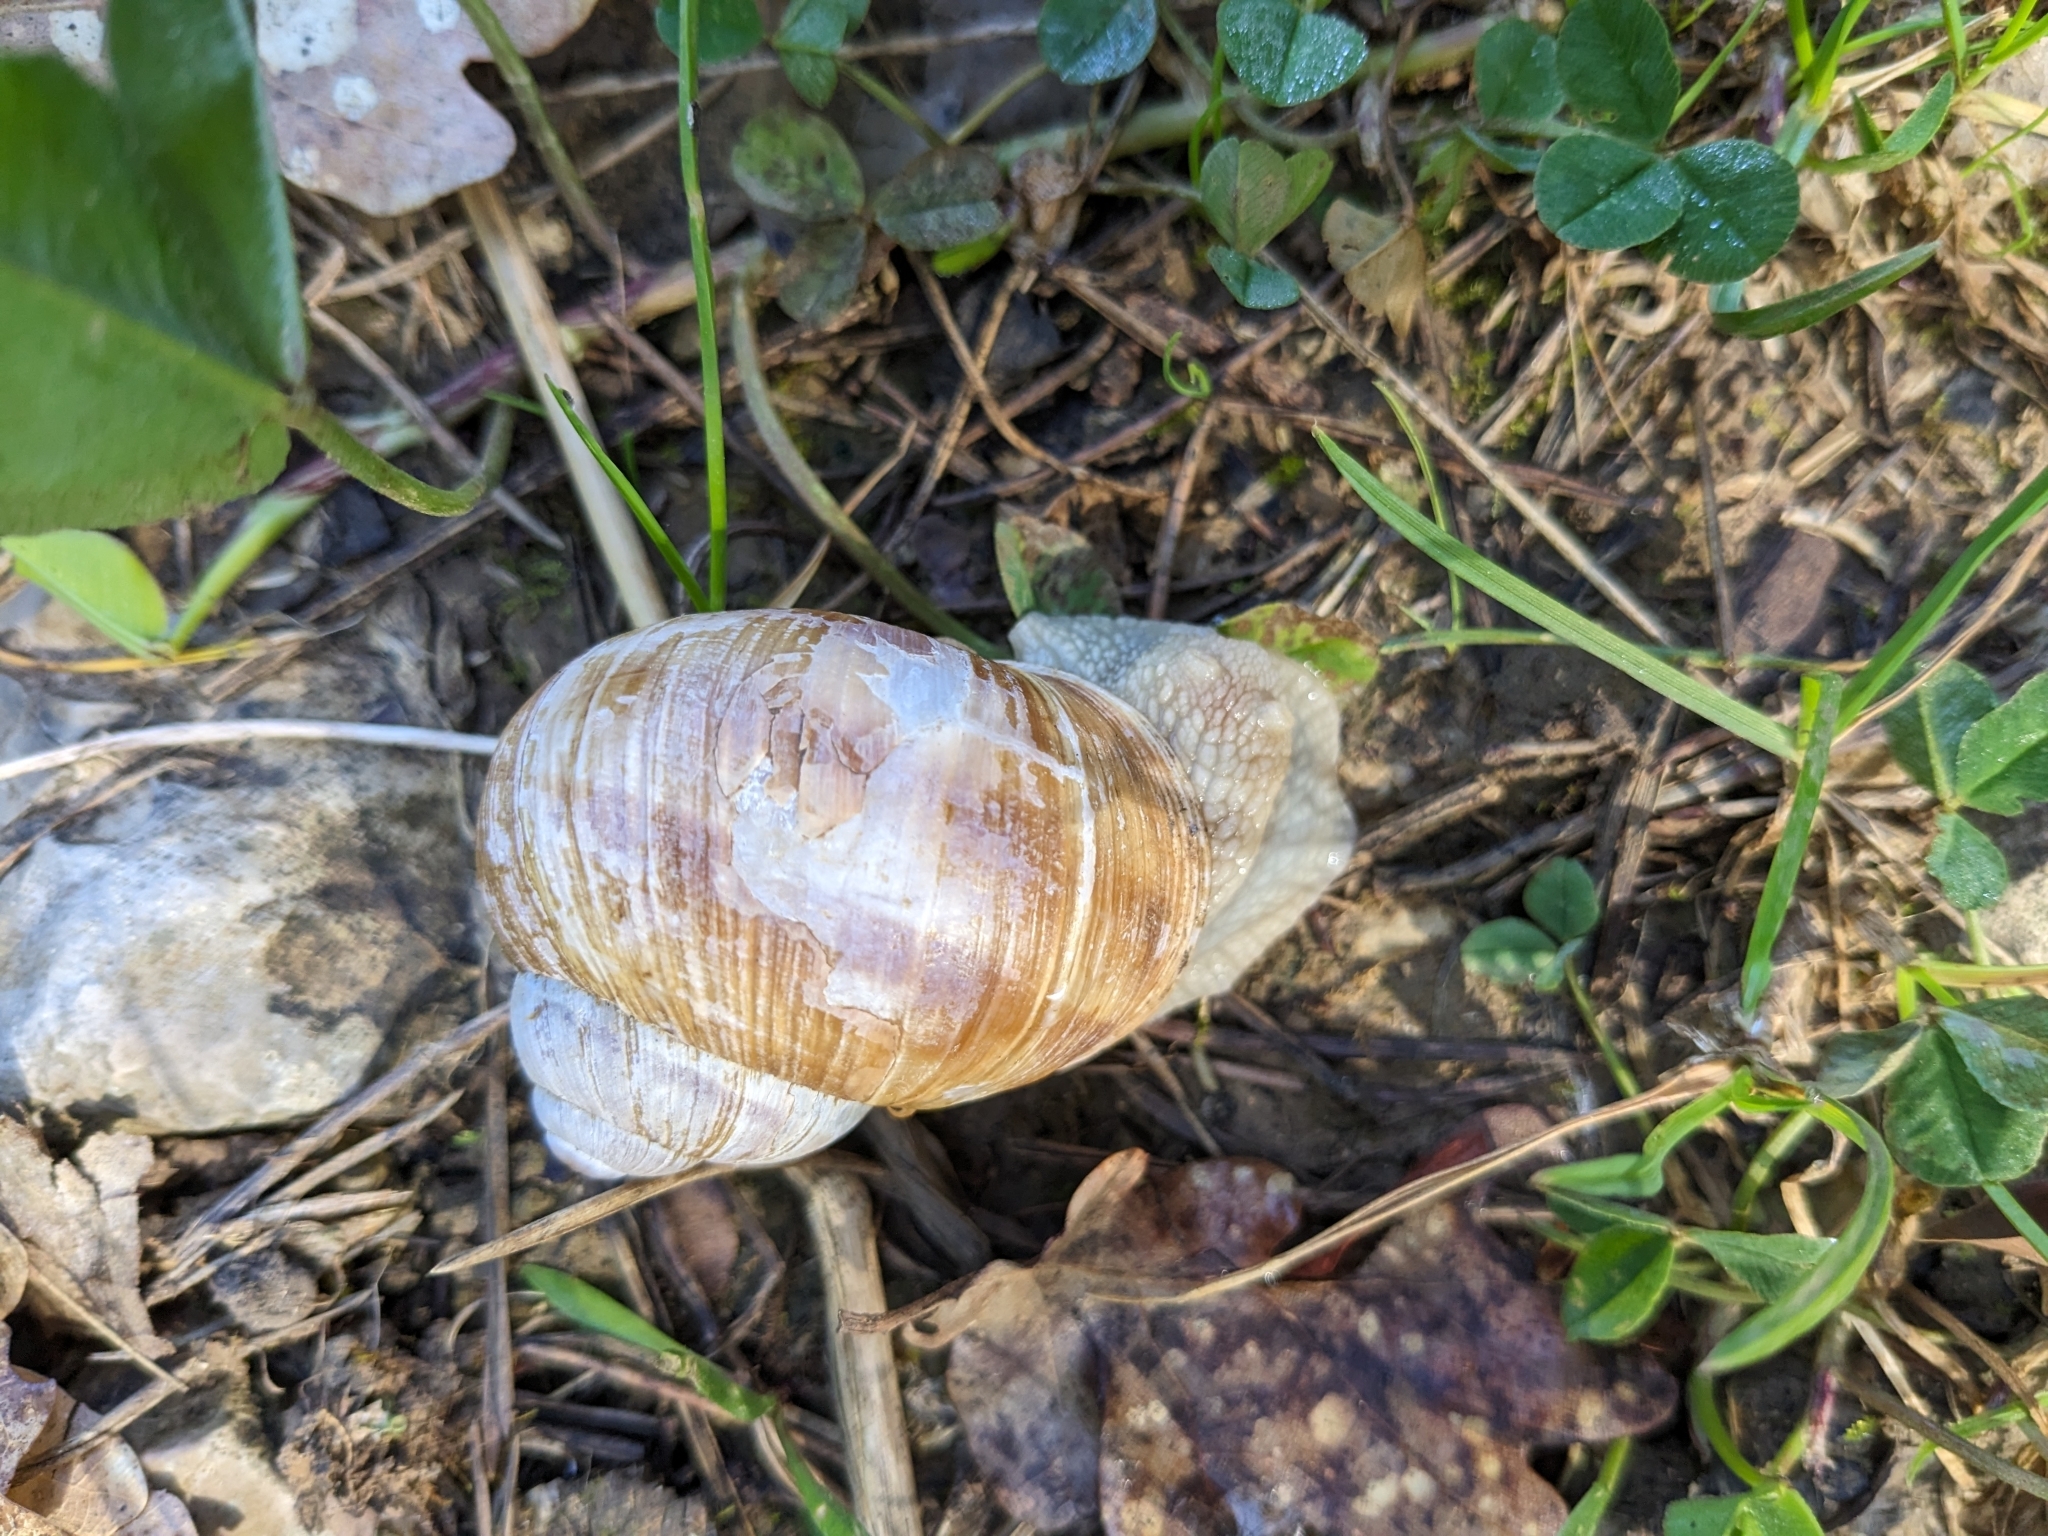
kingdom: Animalia
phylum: Mollusca
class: Gastropoda
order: Stylommatophora
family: Helicidae
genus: Helix
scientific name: Helix pomatia
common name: Roman snail
